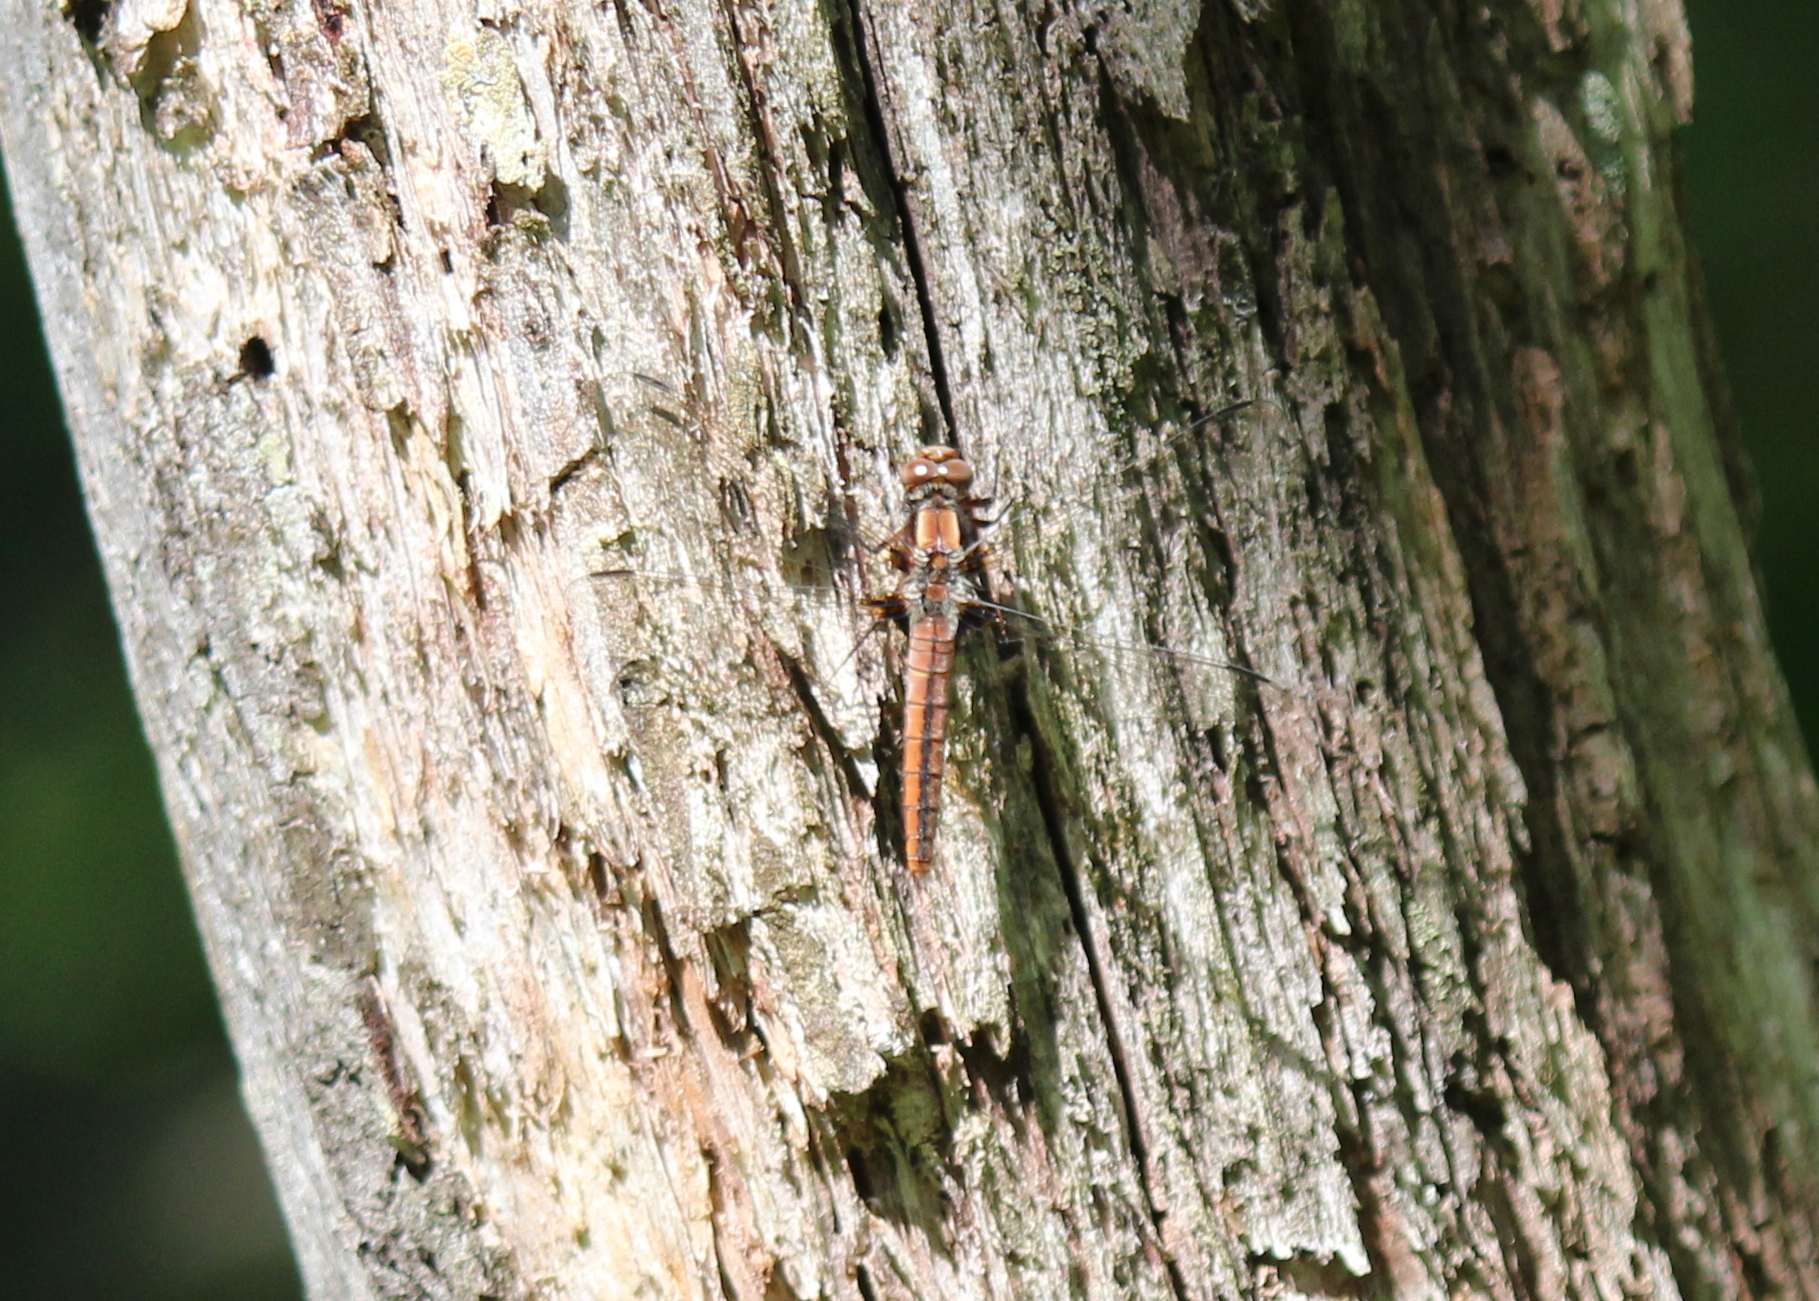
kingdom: Animalia
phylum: Arthropoda
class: Insecta
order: Odonata
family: Libellulidae
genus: Ladona
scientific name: Ladona julia
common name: Chalk-fronted corporal
